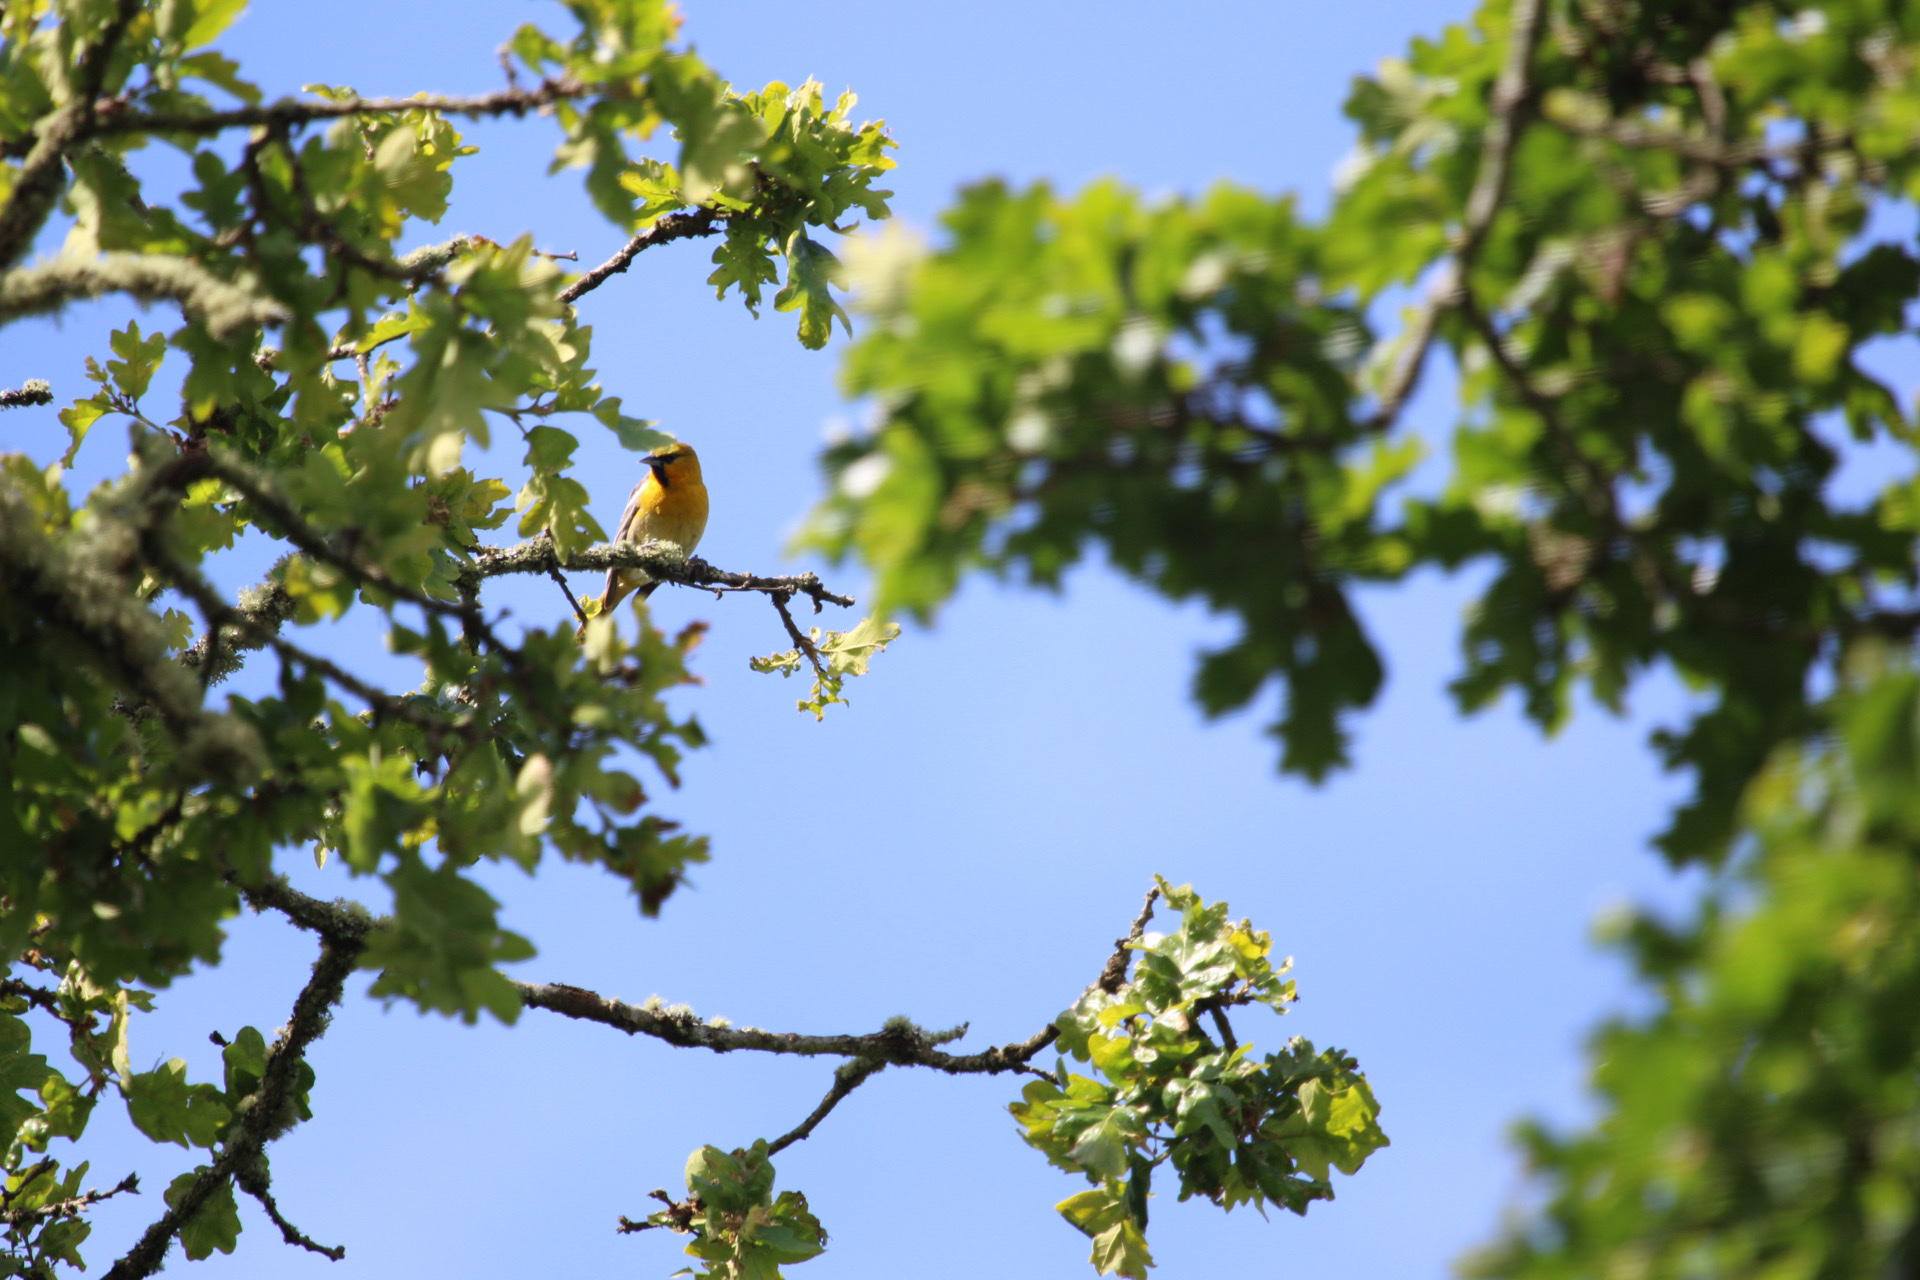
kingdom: Animalia
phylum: Chordata
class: Aves
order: Passeriformes
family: Icteridae
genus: Icterus
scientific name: Icterus bullockii
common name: Bullock's oriole
